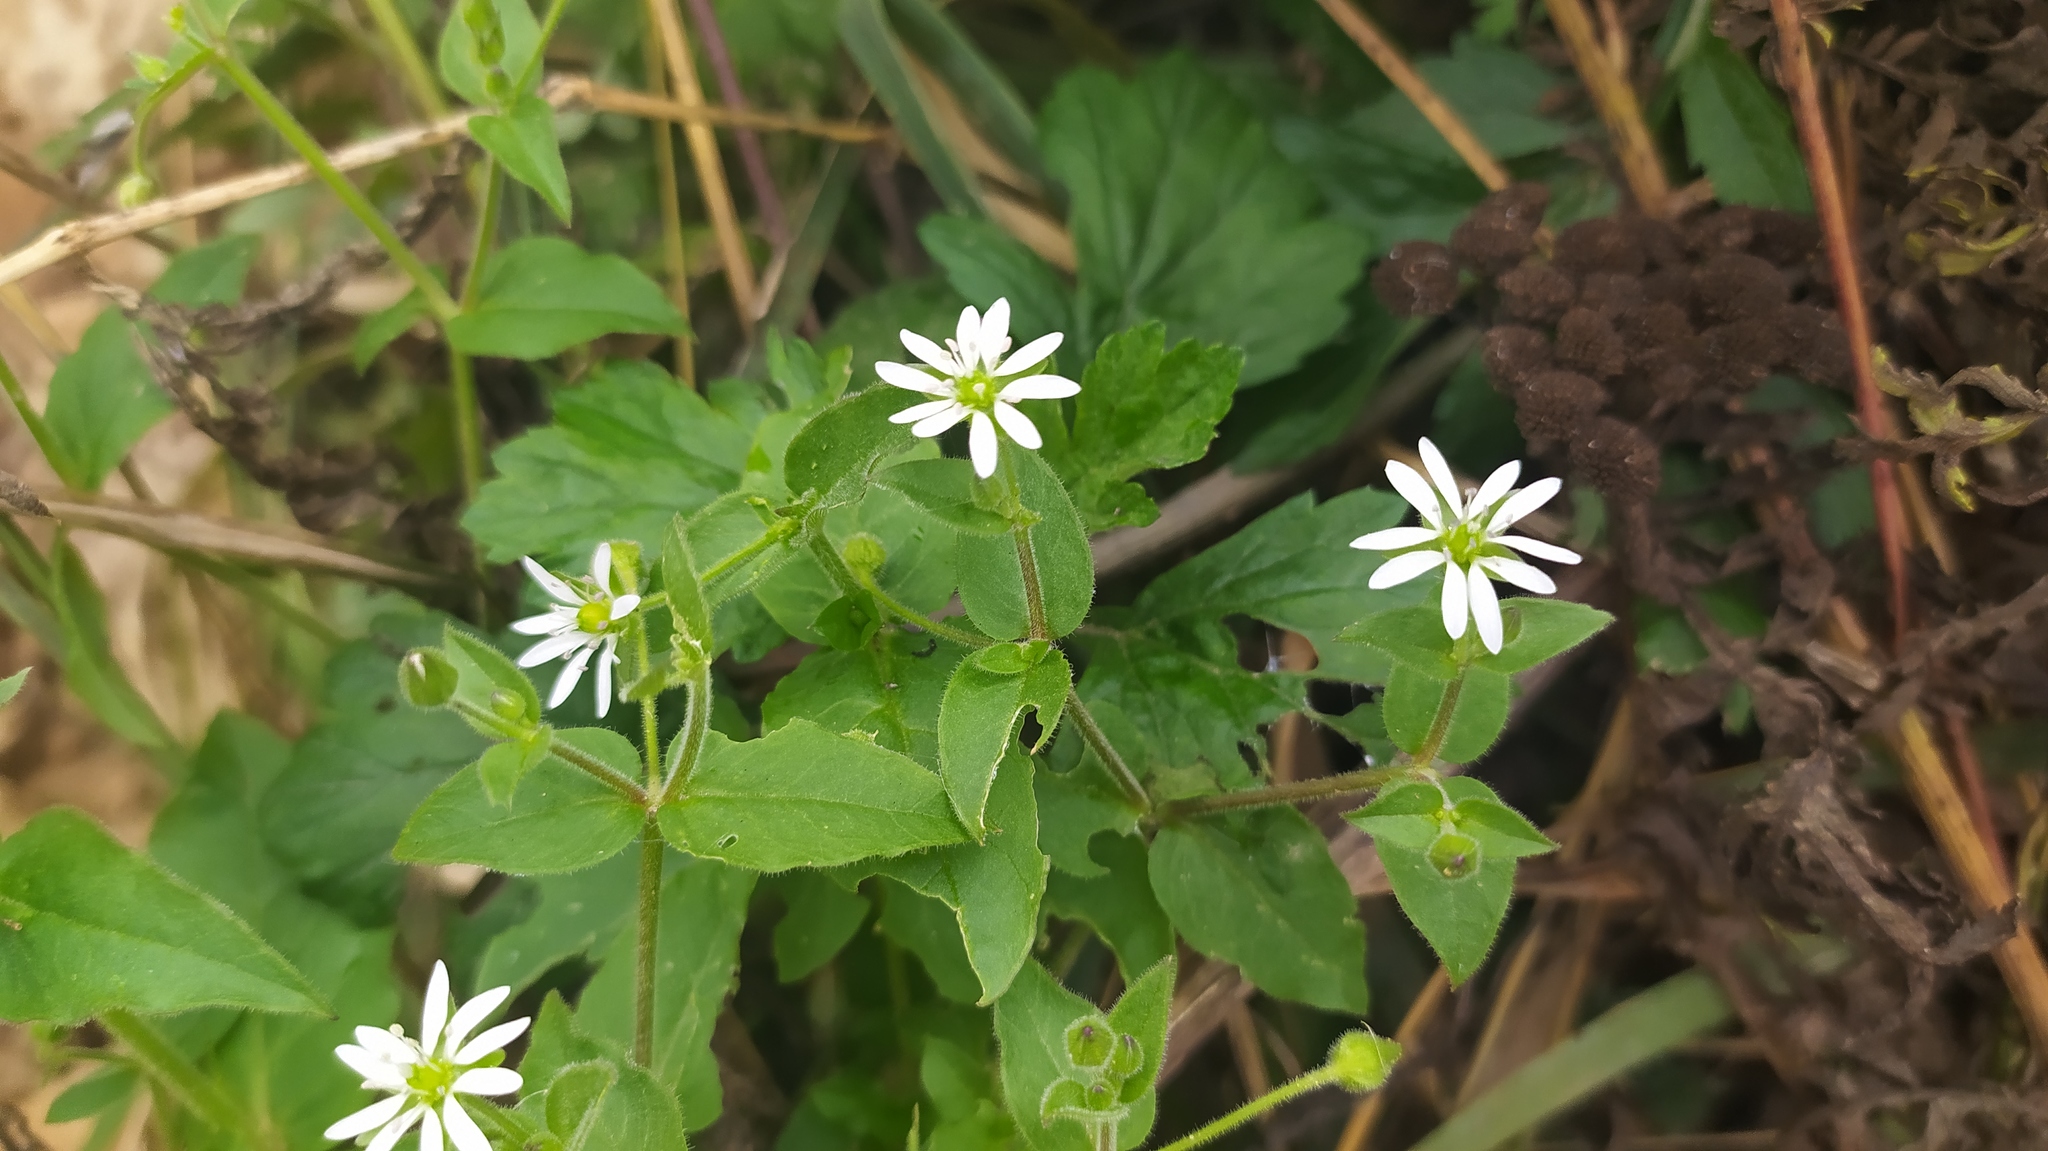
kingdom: Plantae
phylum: Tracheophyta
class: Magnoliopsida
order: Caryophyllales
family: Caryophyllaceae
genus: Stellaria
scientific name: Stellaria aquatica
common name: Water chickweed
